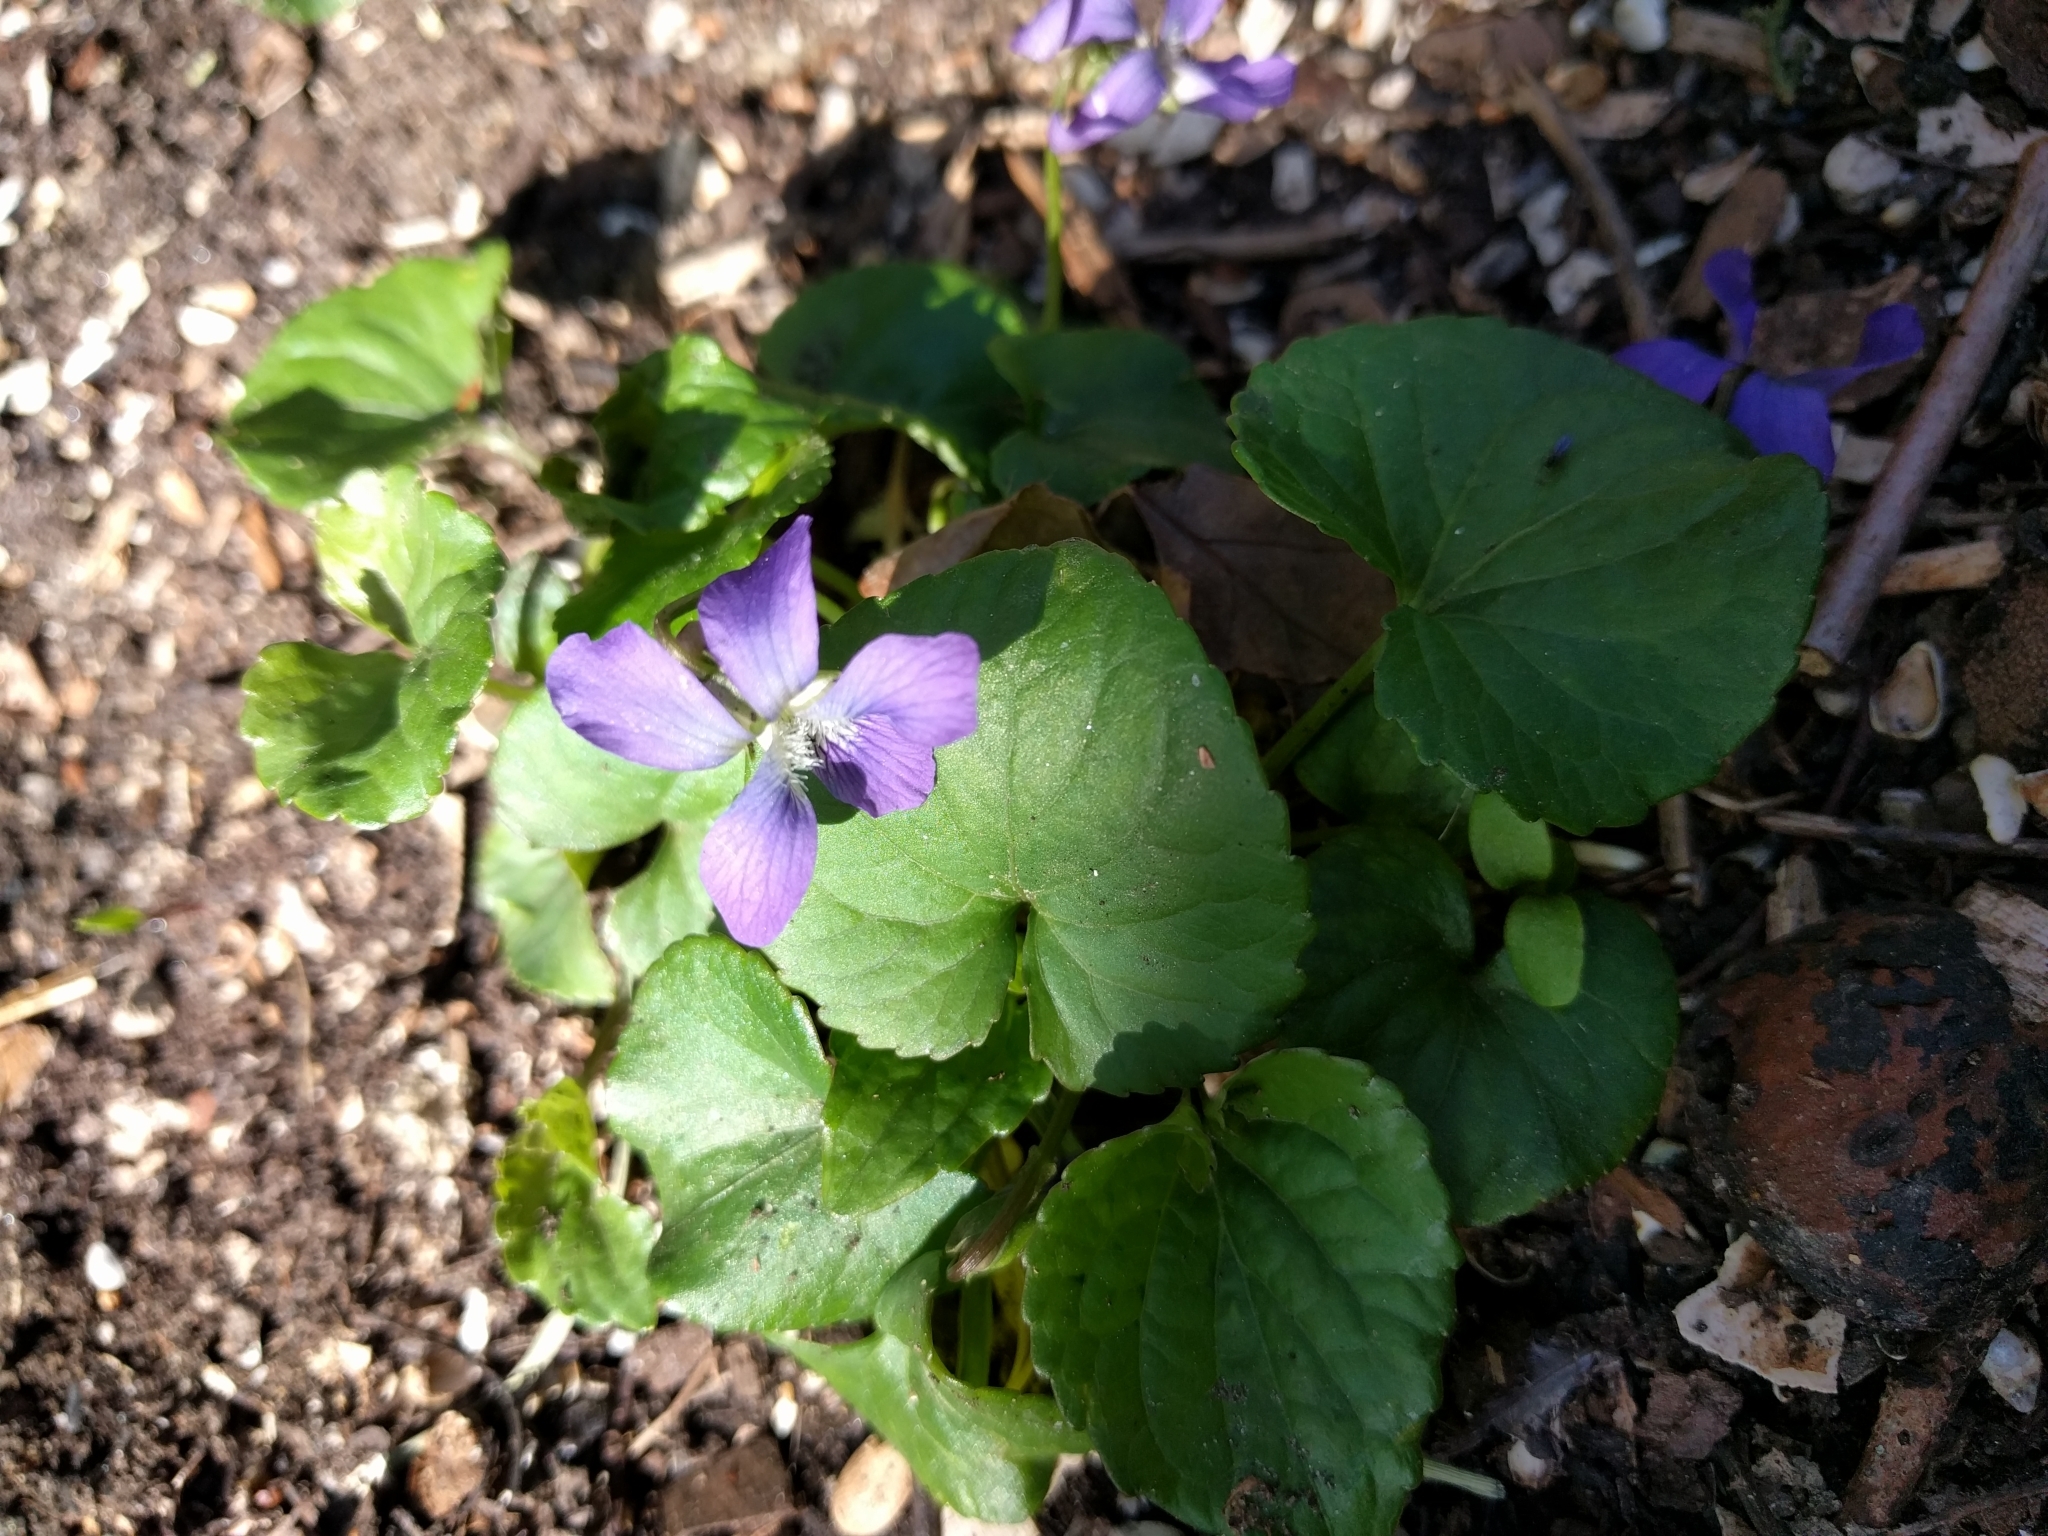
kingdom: Plantae
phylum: Tracheophyta
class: Magnoliopsida
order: Malpighiales
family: Violaceae
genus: Viola
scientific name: Viola sororia
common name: Dooryard violet
